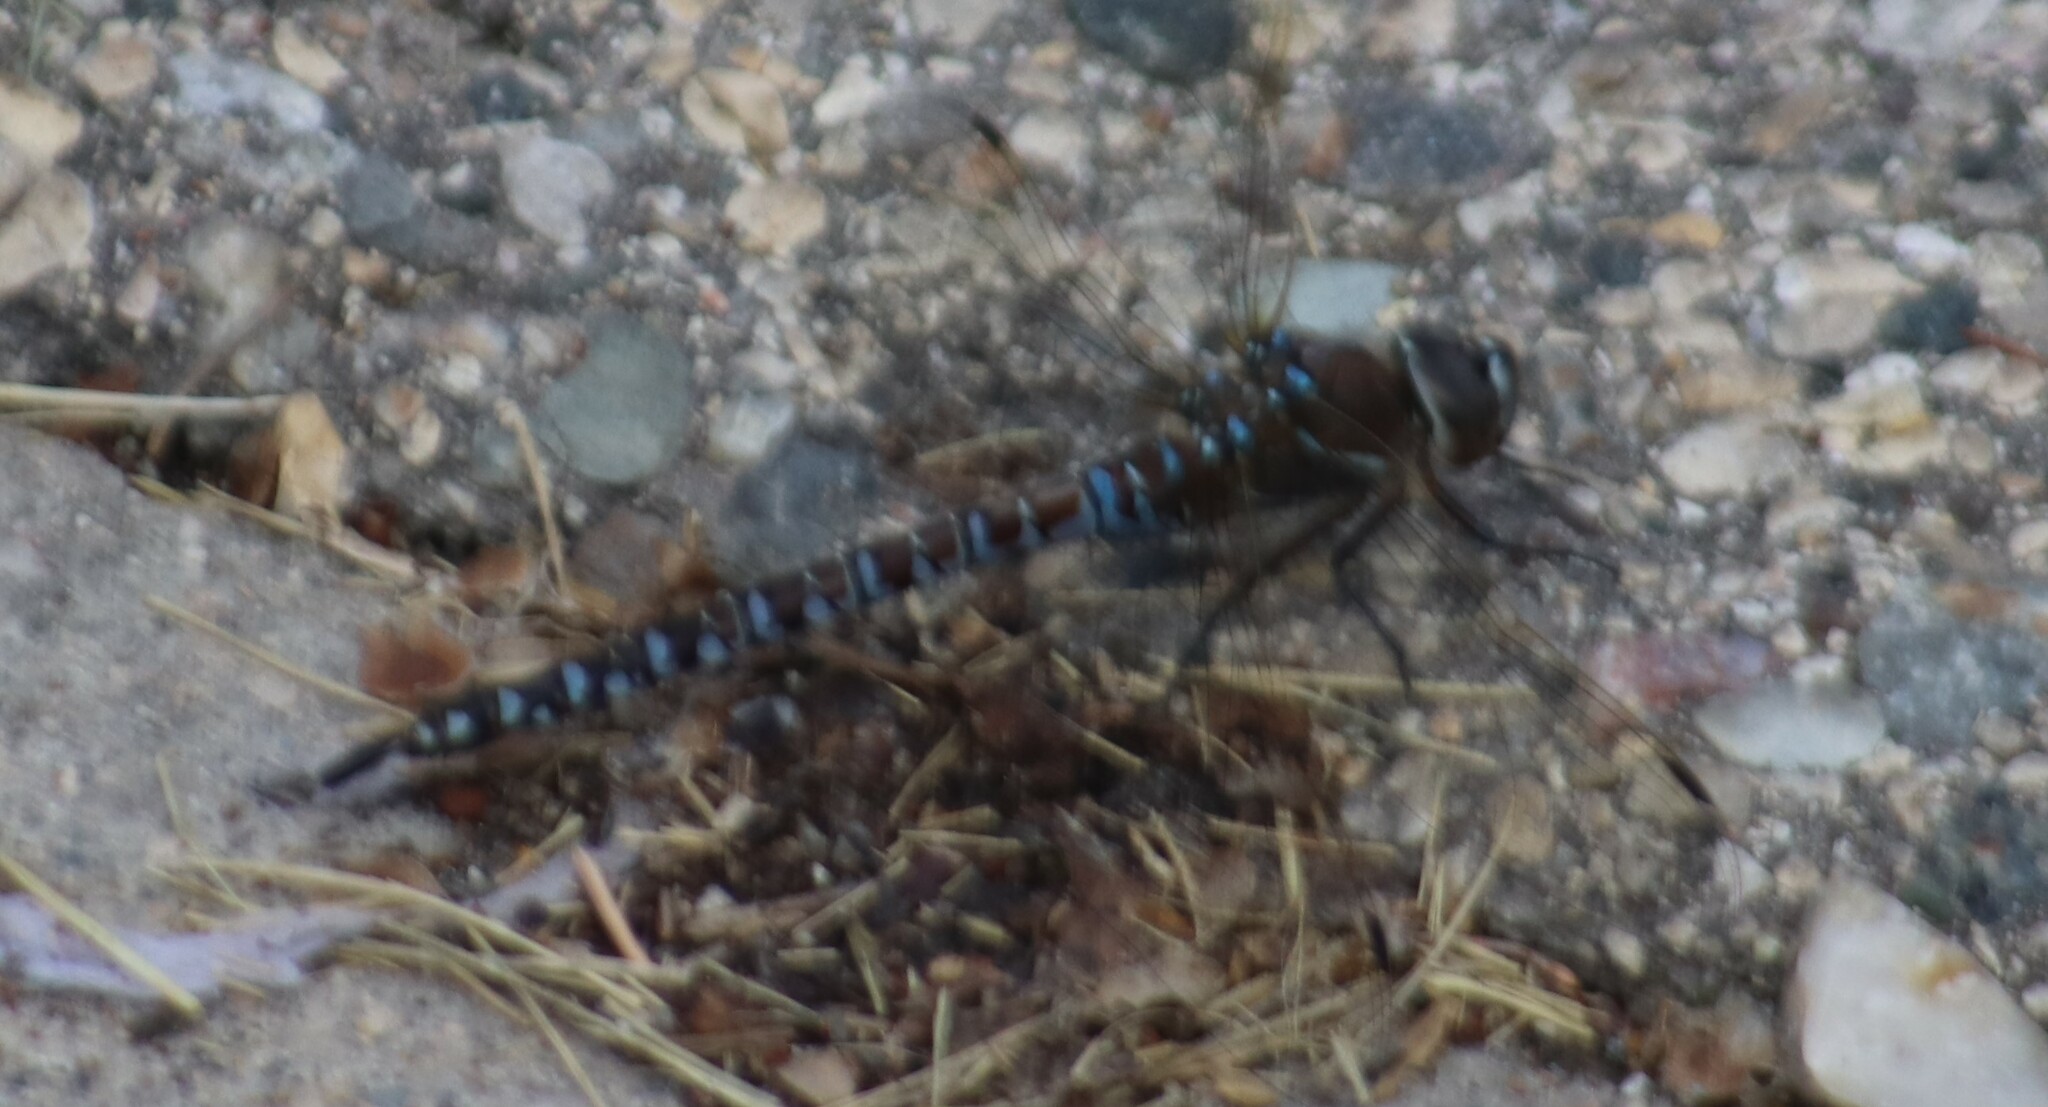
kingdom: Animalia
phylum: Arthropoda
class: Insecta
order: Odonata
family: Aeshnidae
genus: Aeshna
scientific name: Aeshna interrupta
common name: Variable darner
